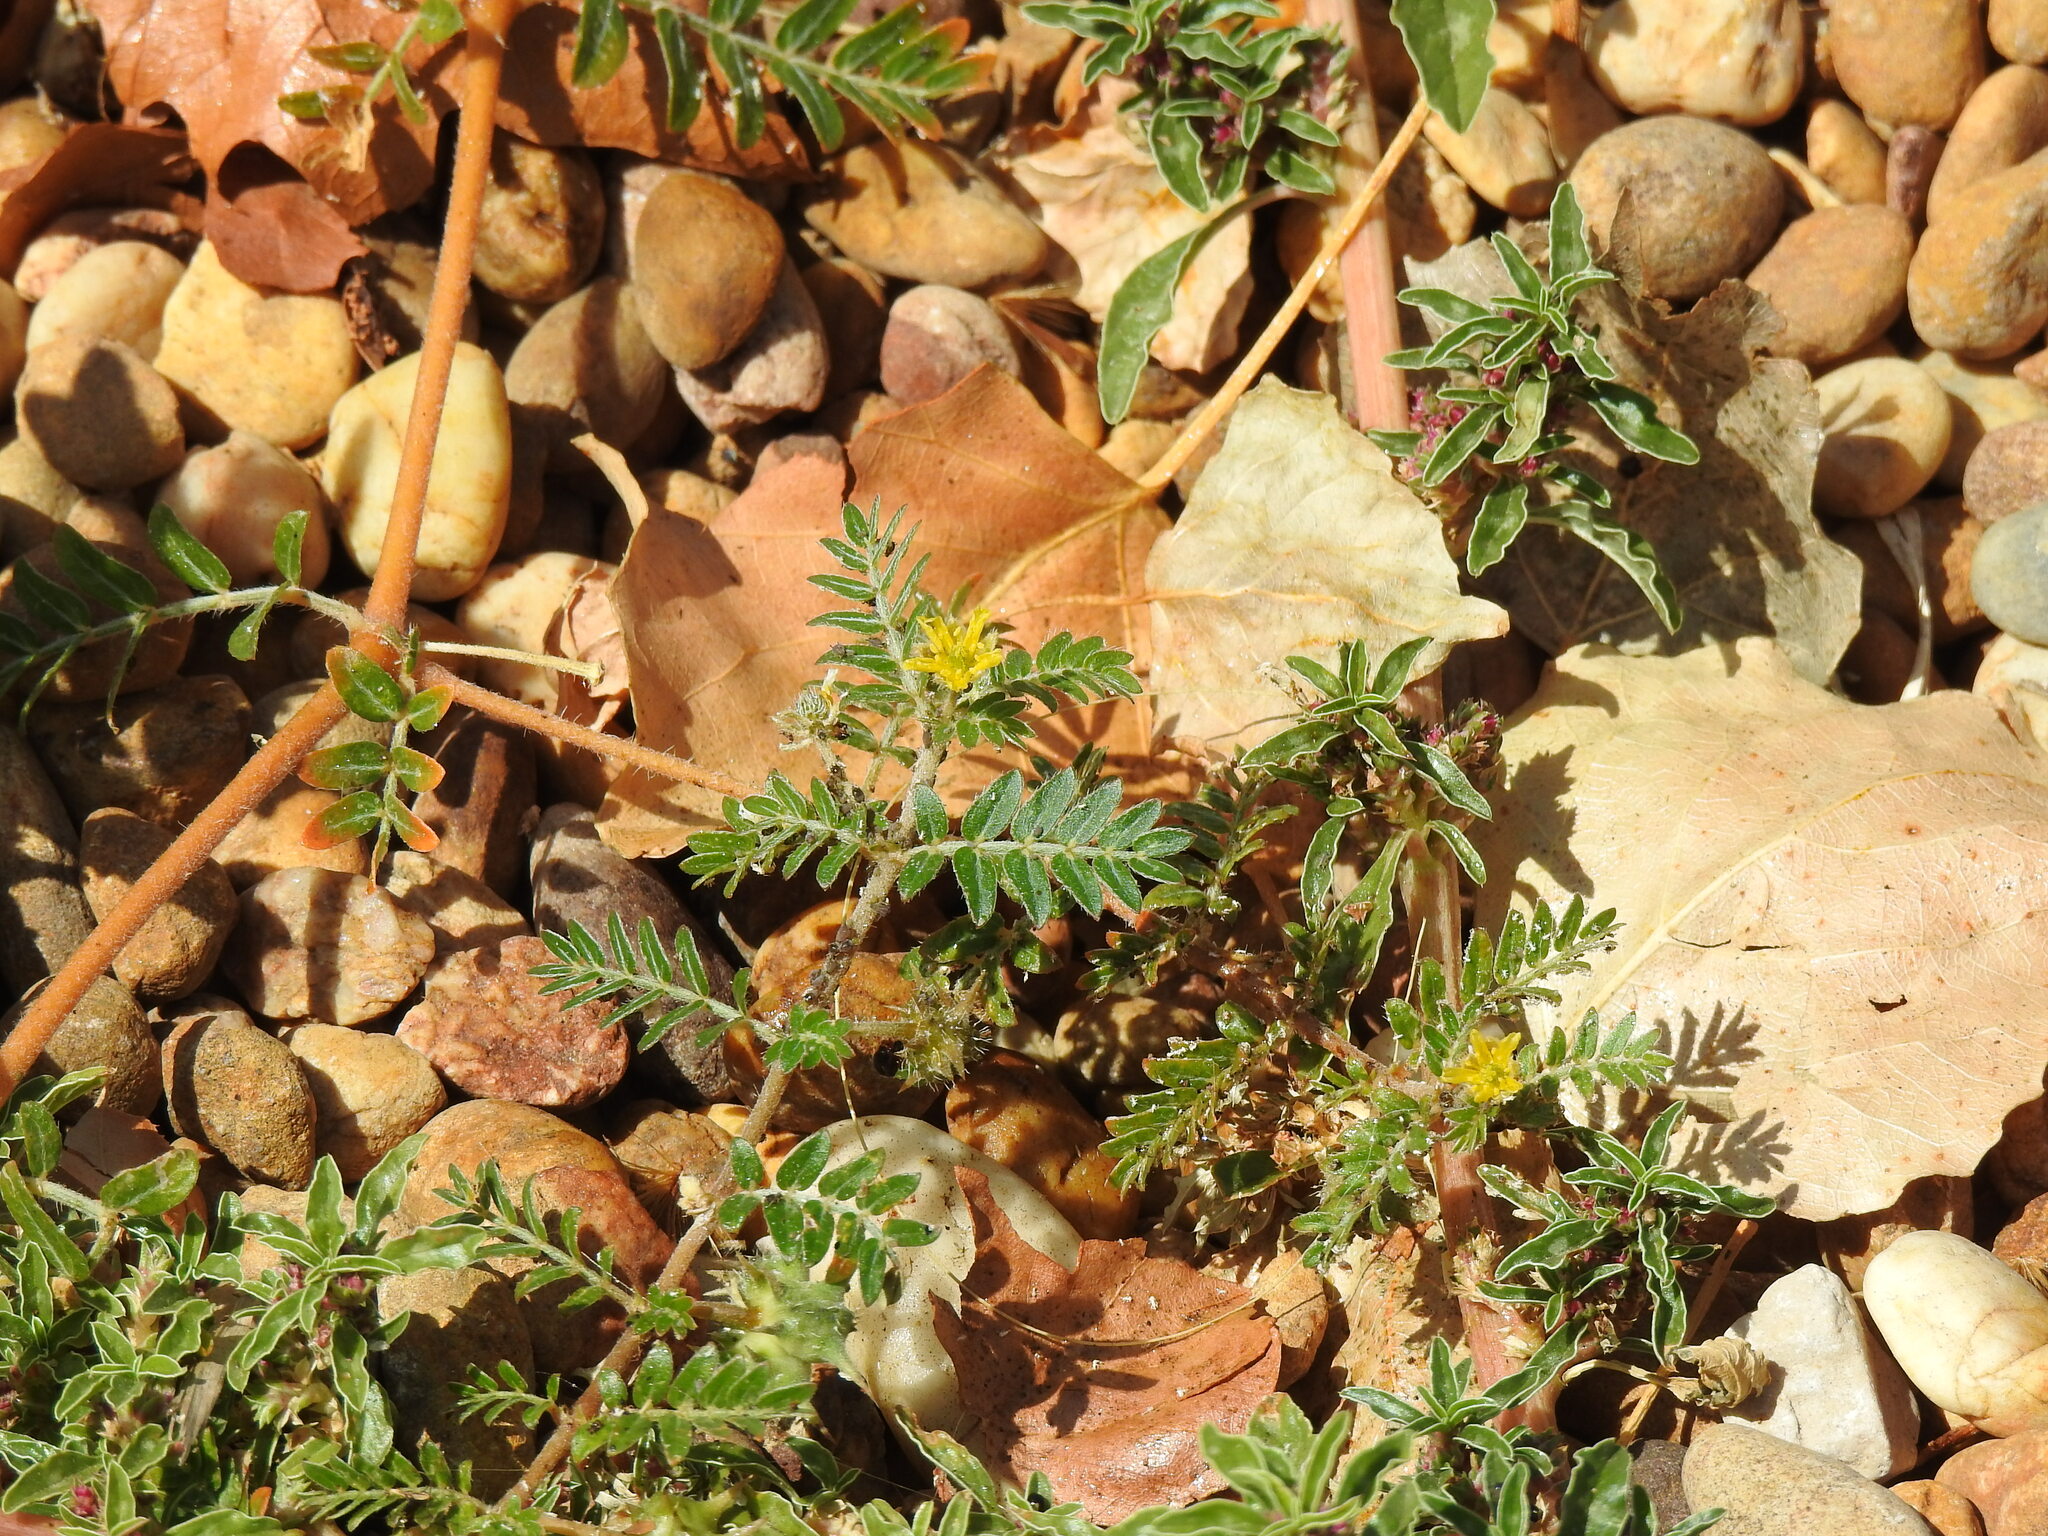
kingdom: Plantae
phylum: Tracheophyta
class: Magnoliopsida
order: Zygophyllales
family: Zygophyllaceae
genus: Tribulus
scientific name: Tribulus terrestris
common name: Puncturevine
